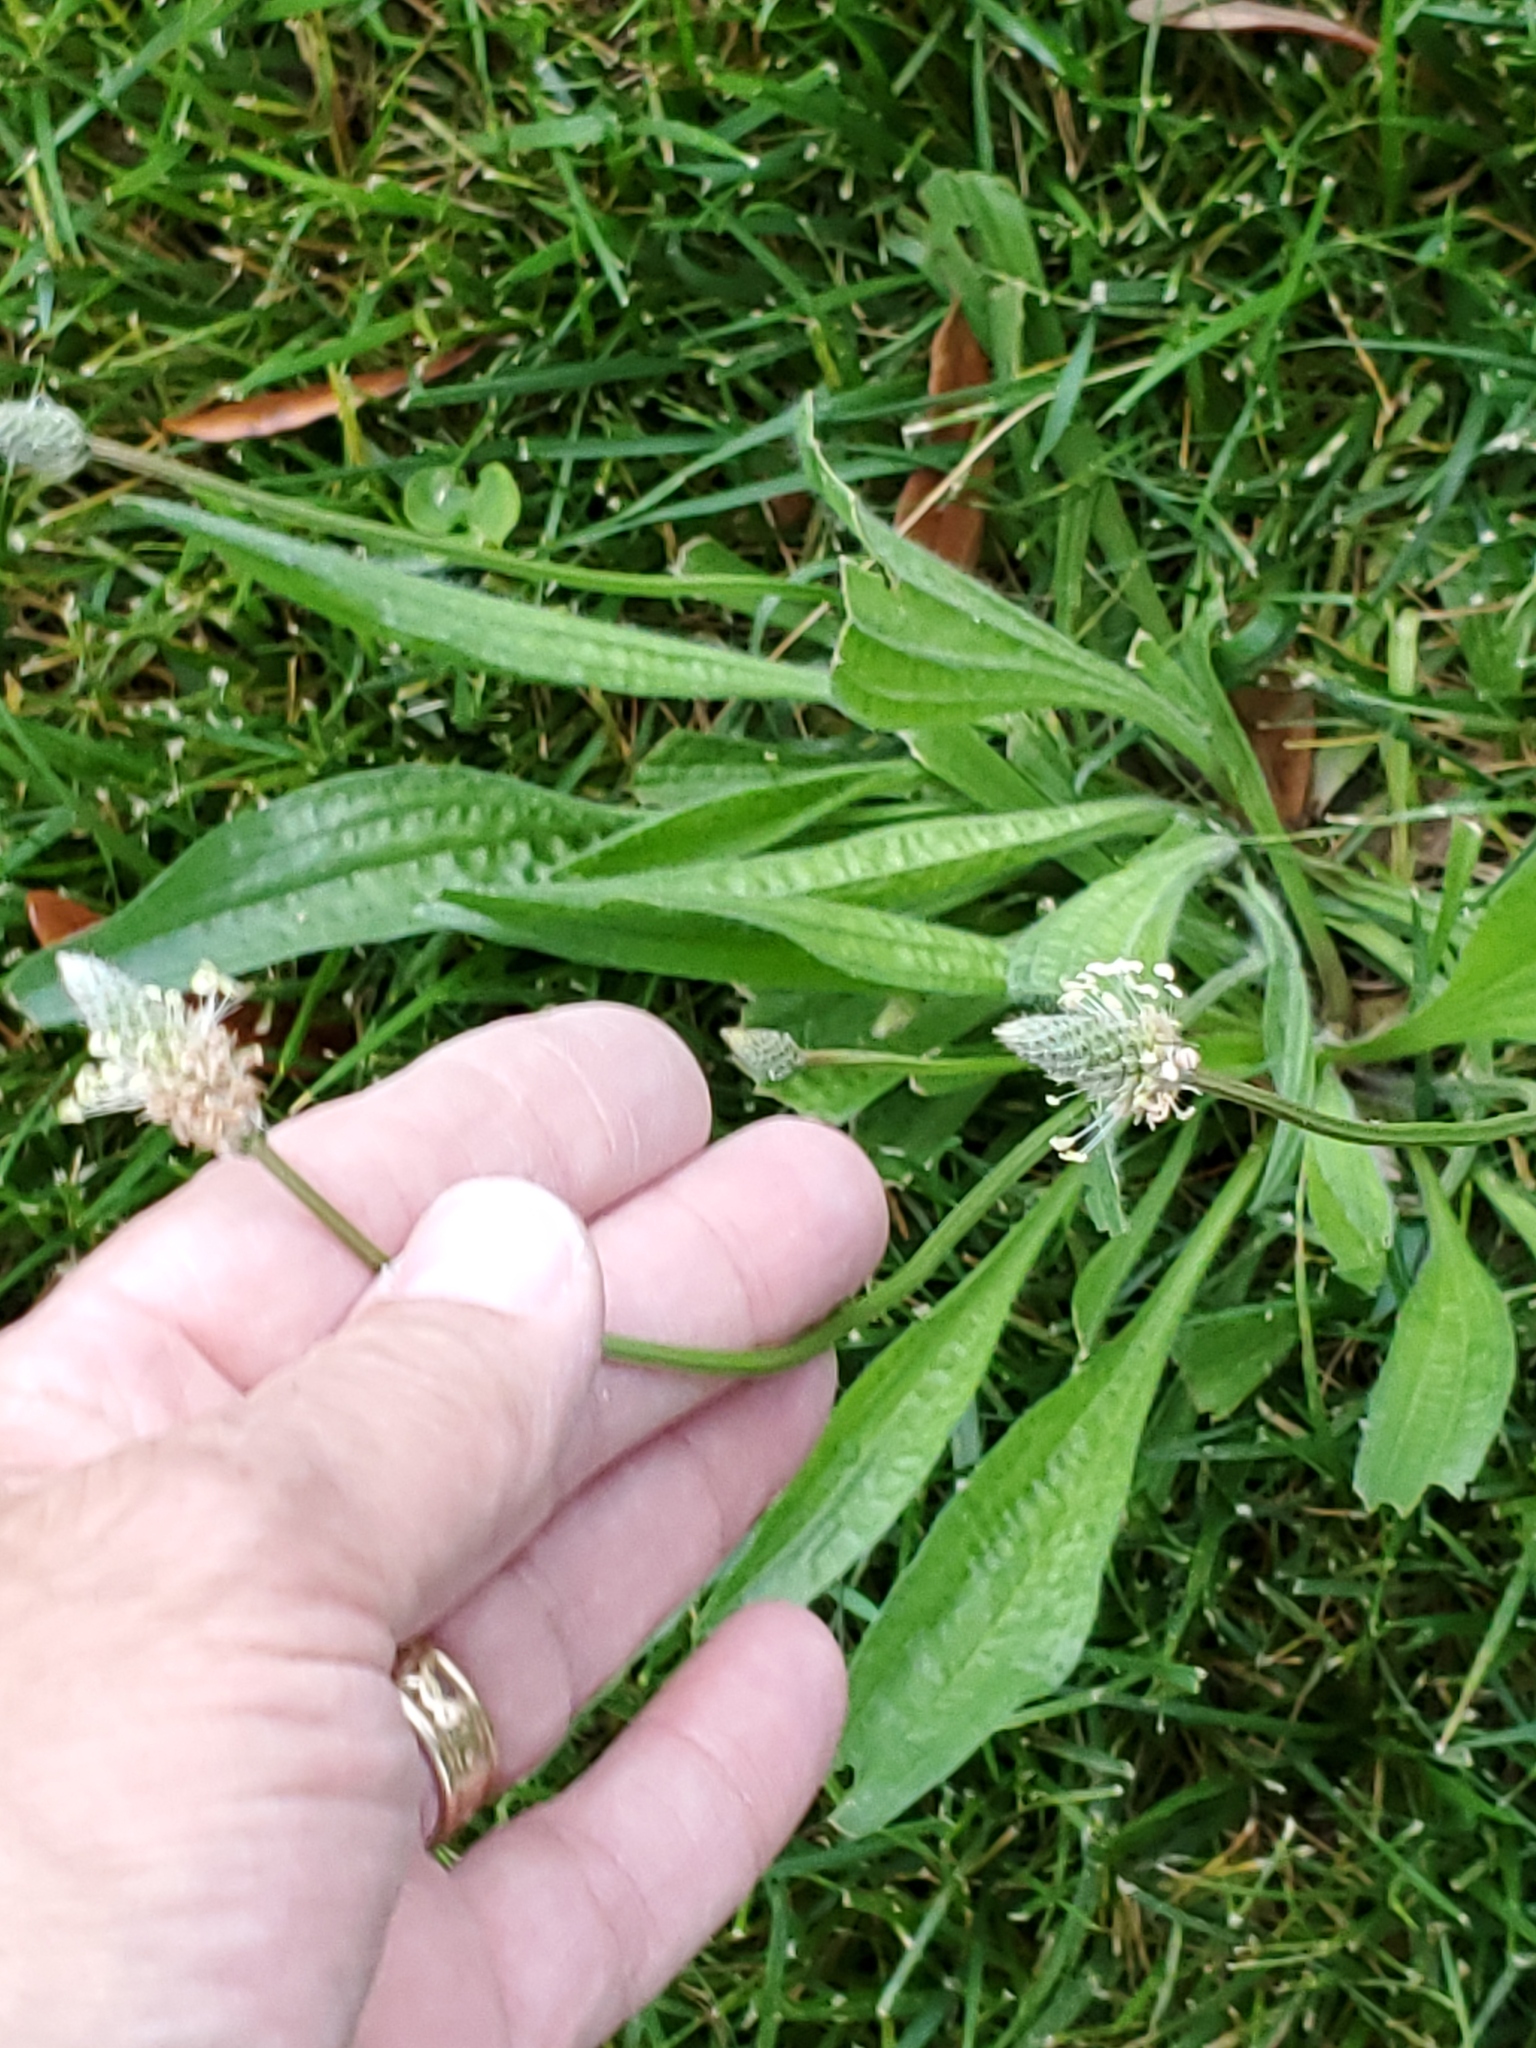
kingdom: Plantae
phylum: Tracheophyta
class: Magnoliopsida
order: Lamiales
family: Plantaginaceae
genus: Plantago
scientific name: Plantago lanceolata
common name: Ribwort plantain
